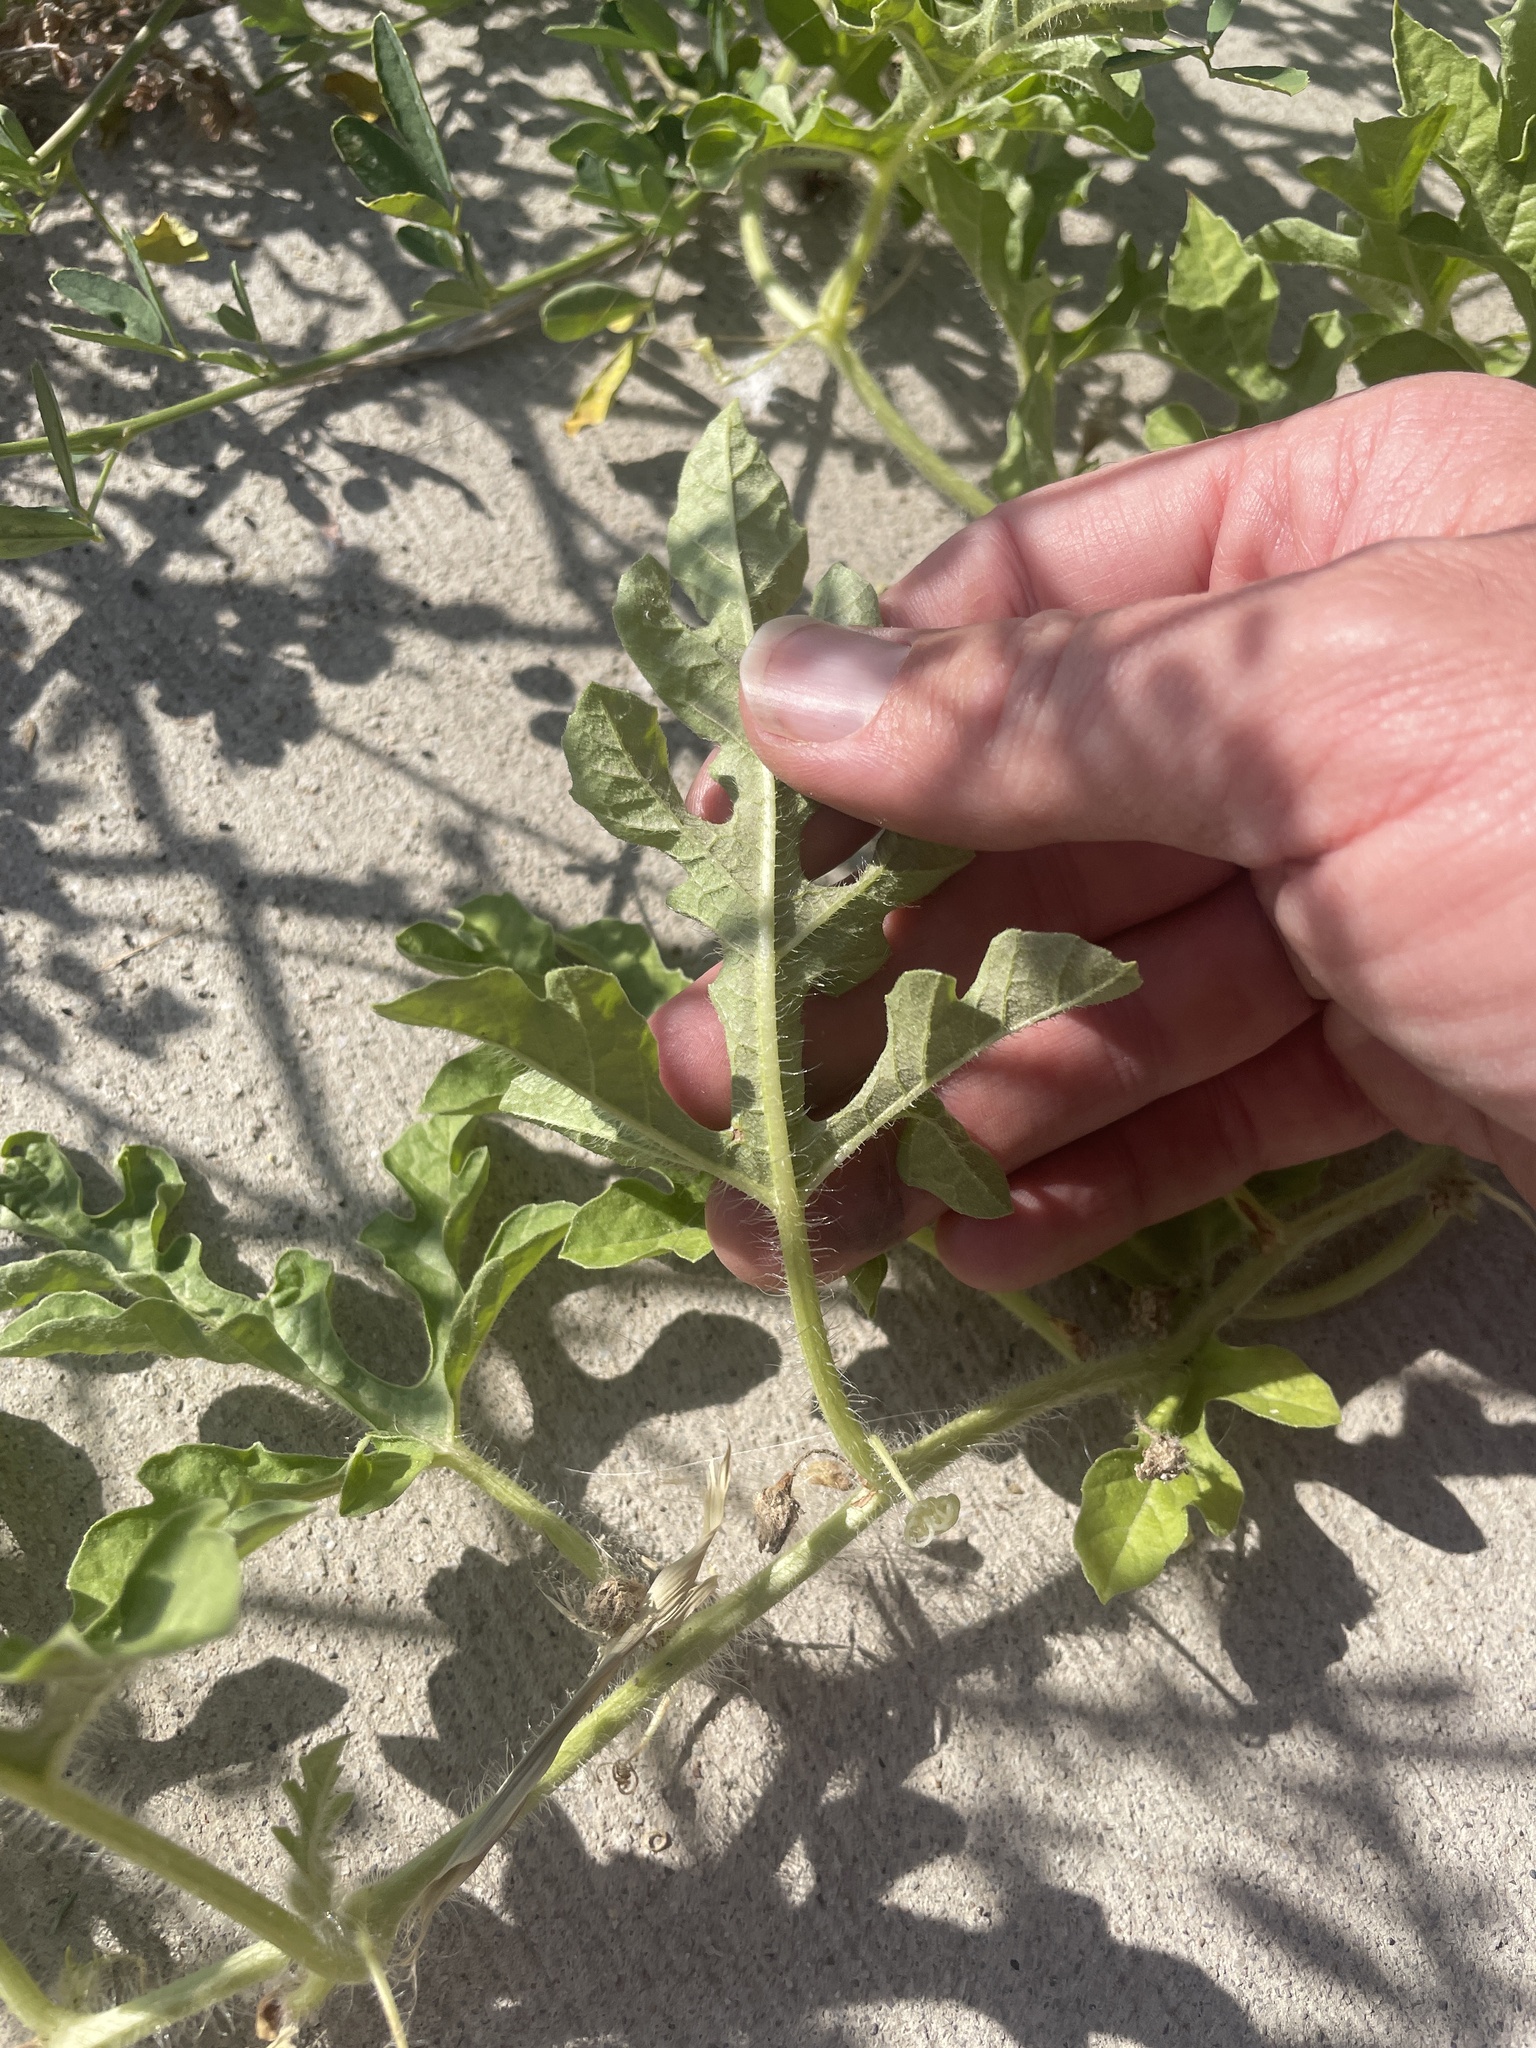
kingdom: Plantae
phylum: Tracheophyta
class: Magnoliopsida
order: Cucurbitales
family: Cucurbitaceae
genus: Citrullus
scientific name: Citrullus lanatus
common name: Watermelon
